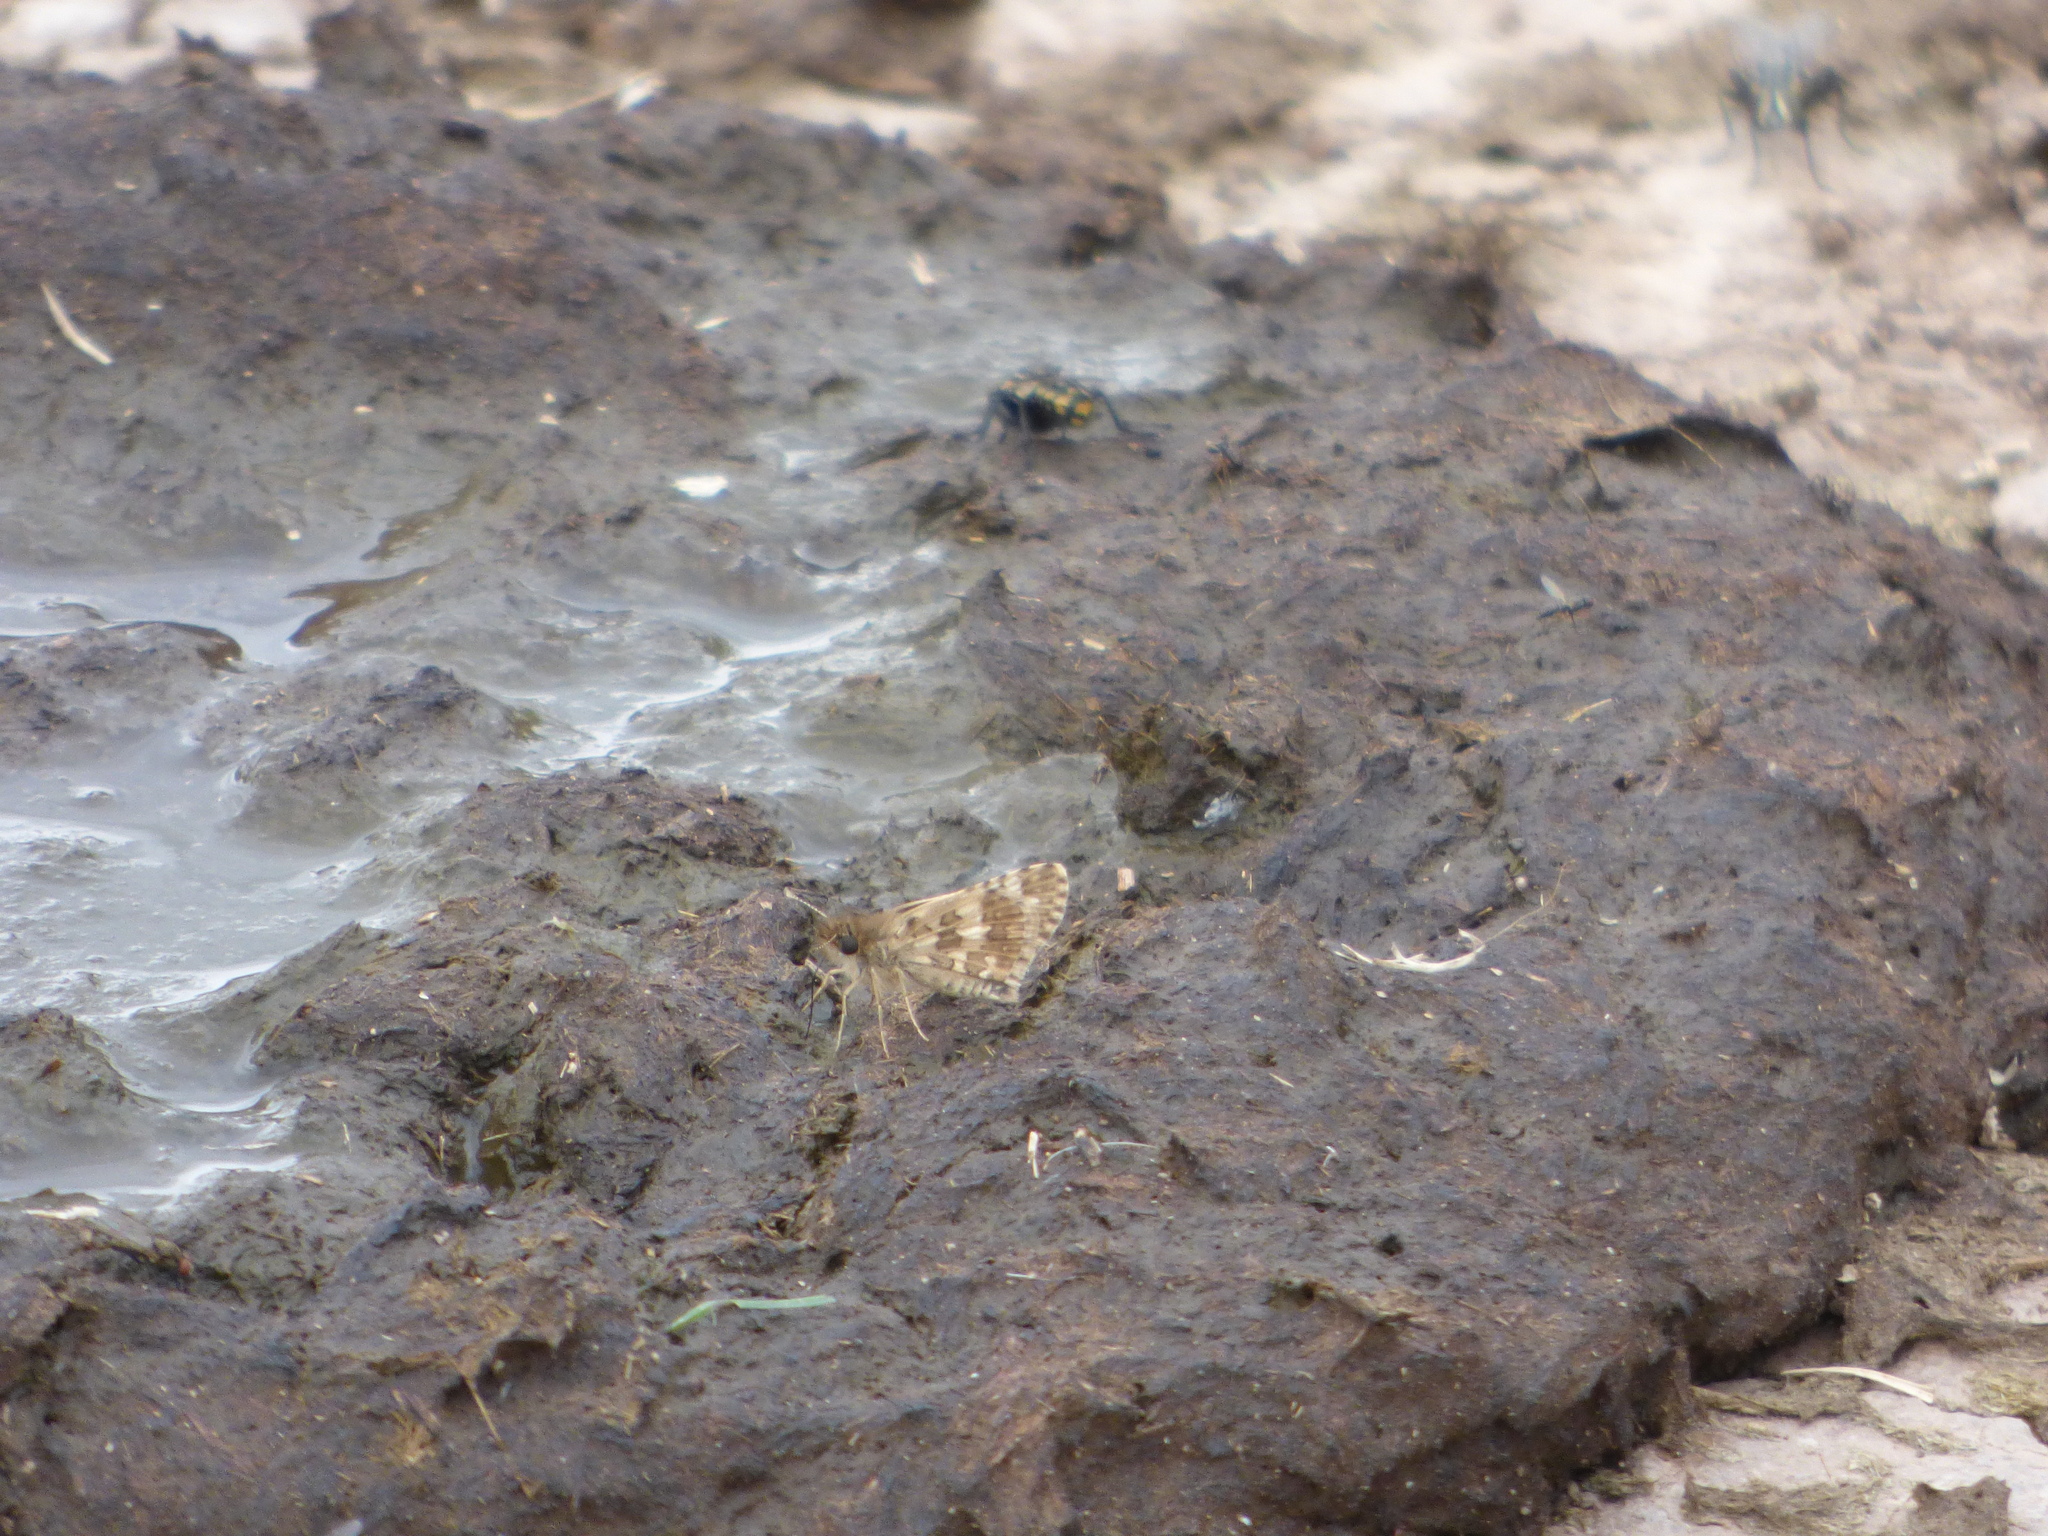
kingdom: Animalia
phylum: Arthropoda
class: Insecta
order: Lepidoptera
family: Hesperiidae
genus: Burnsius
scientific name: Burnsius orcynoides
